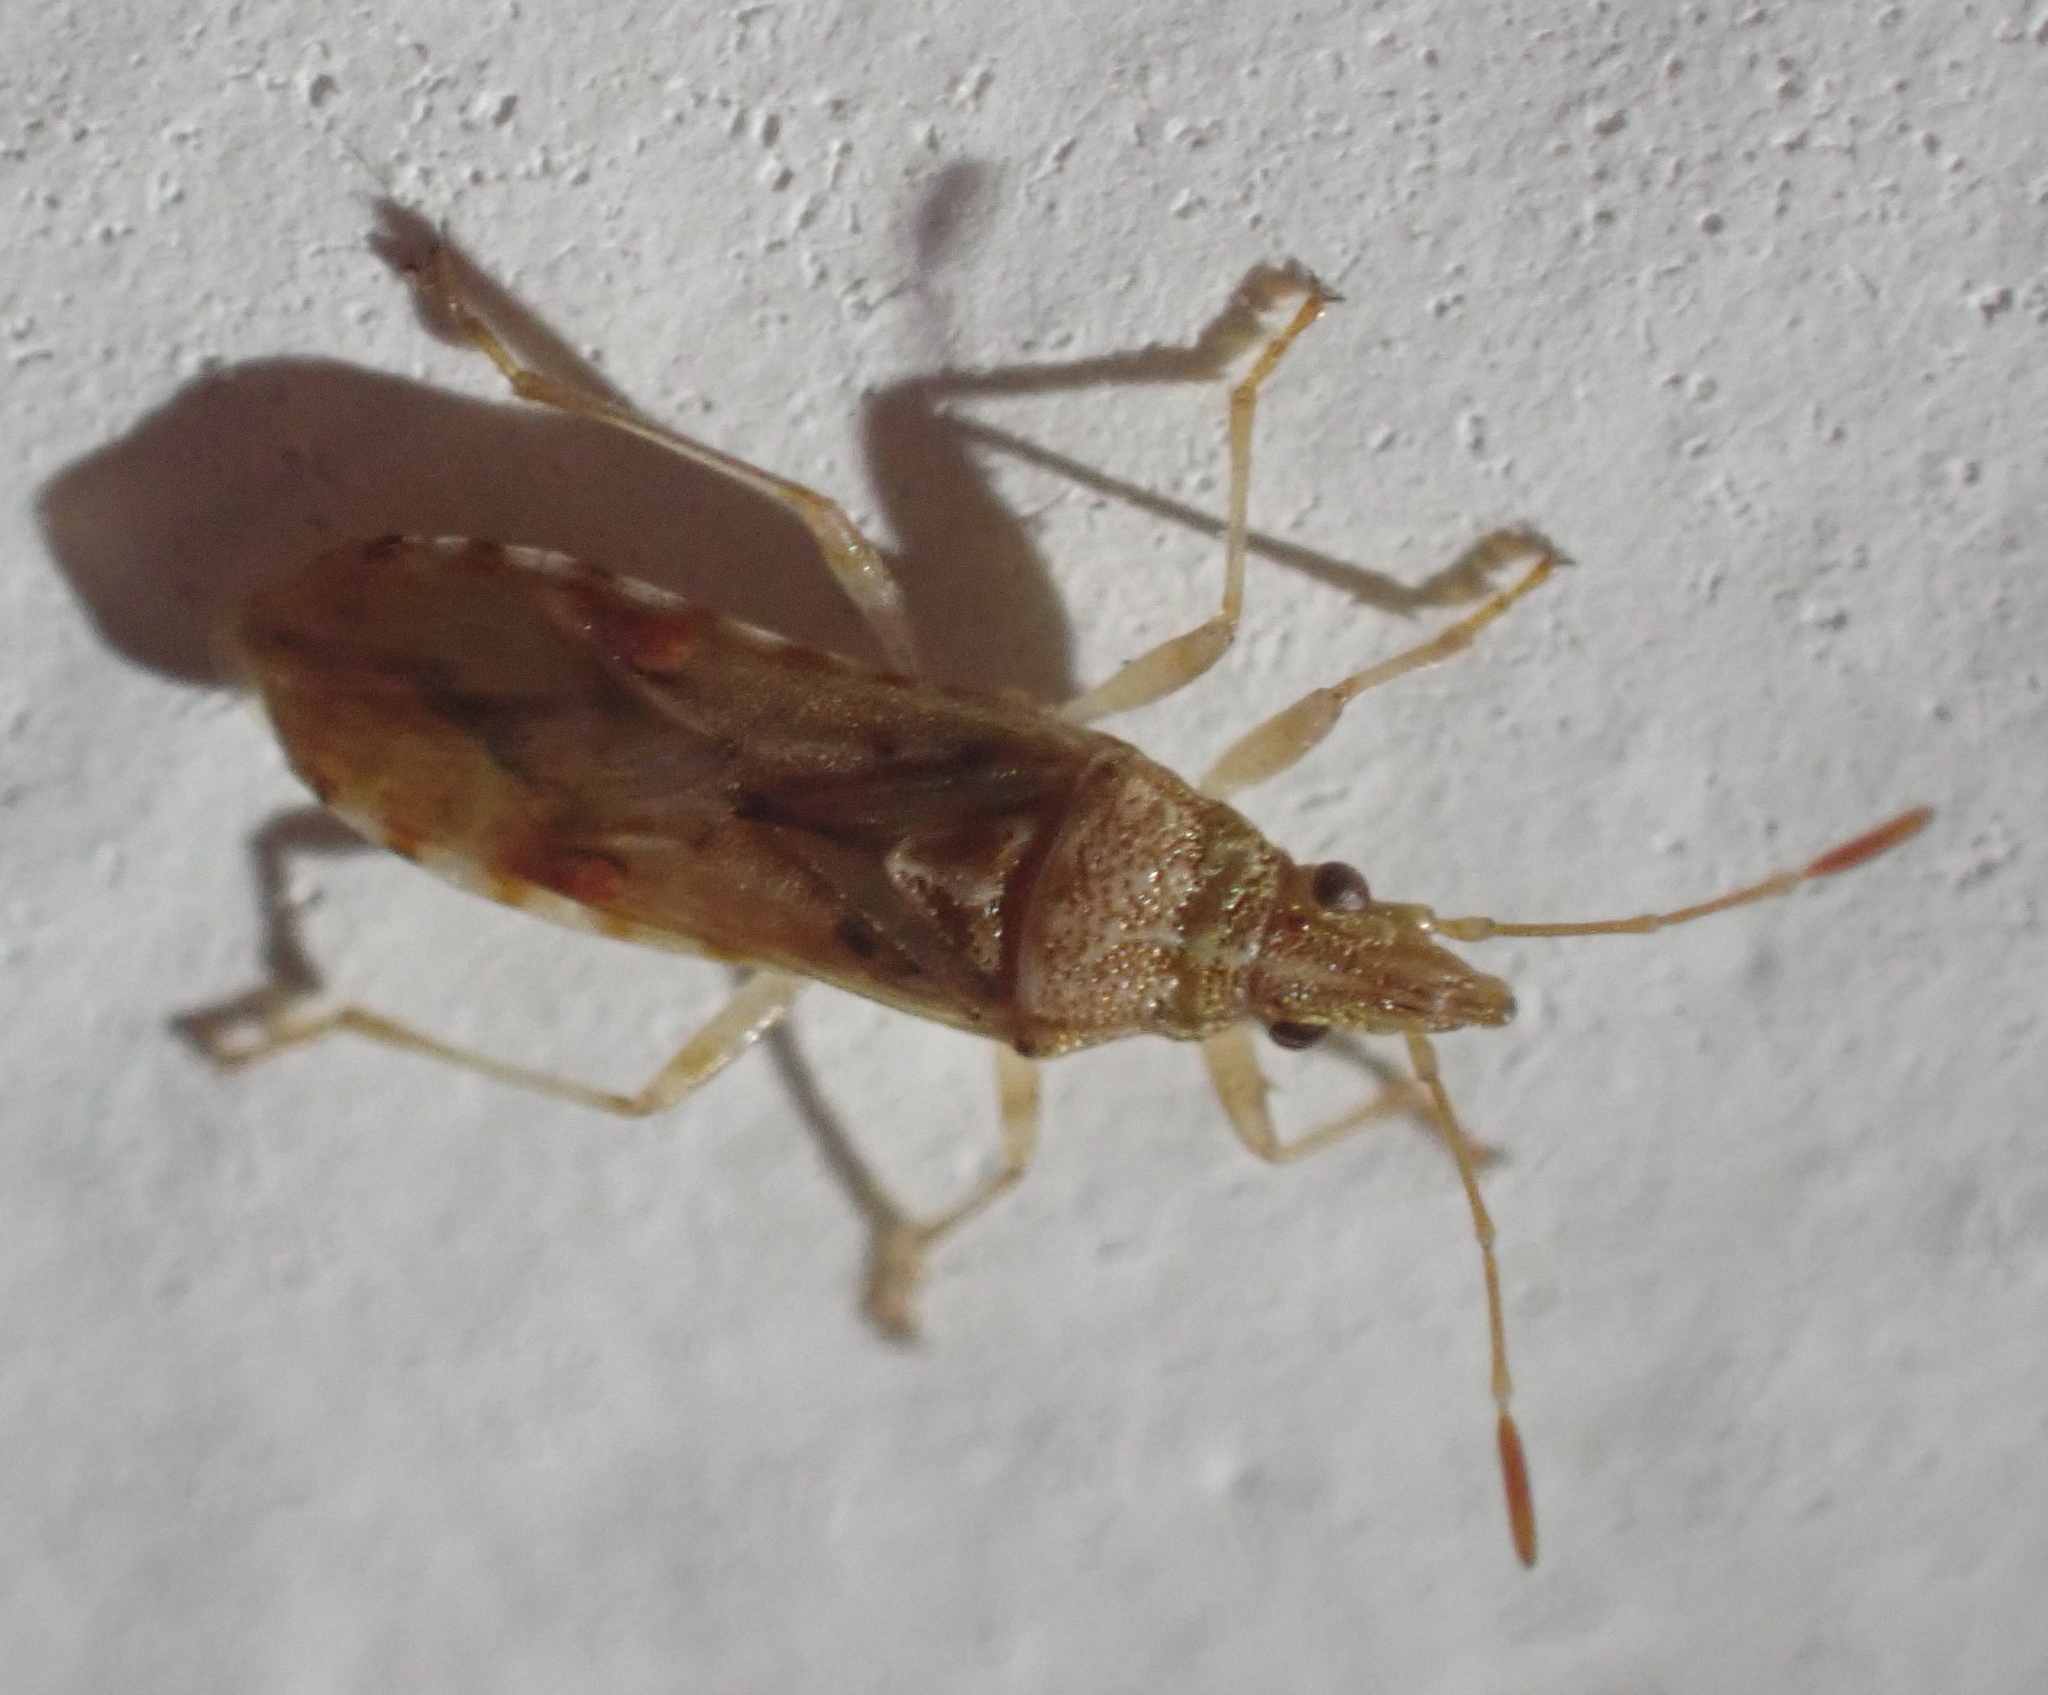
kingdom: Animalia
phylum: Arthropoda
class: Insecta
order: Hemiptera
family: Lygaeidae
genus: Belonochilus
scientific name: Belonochilus numenius
